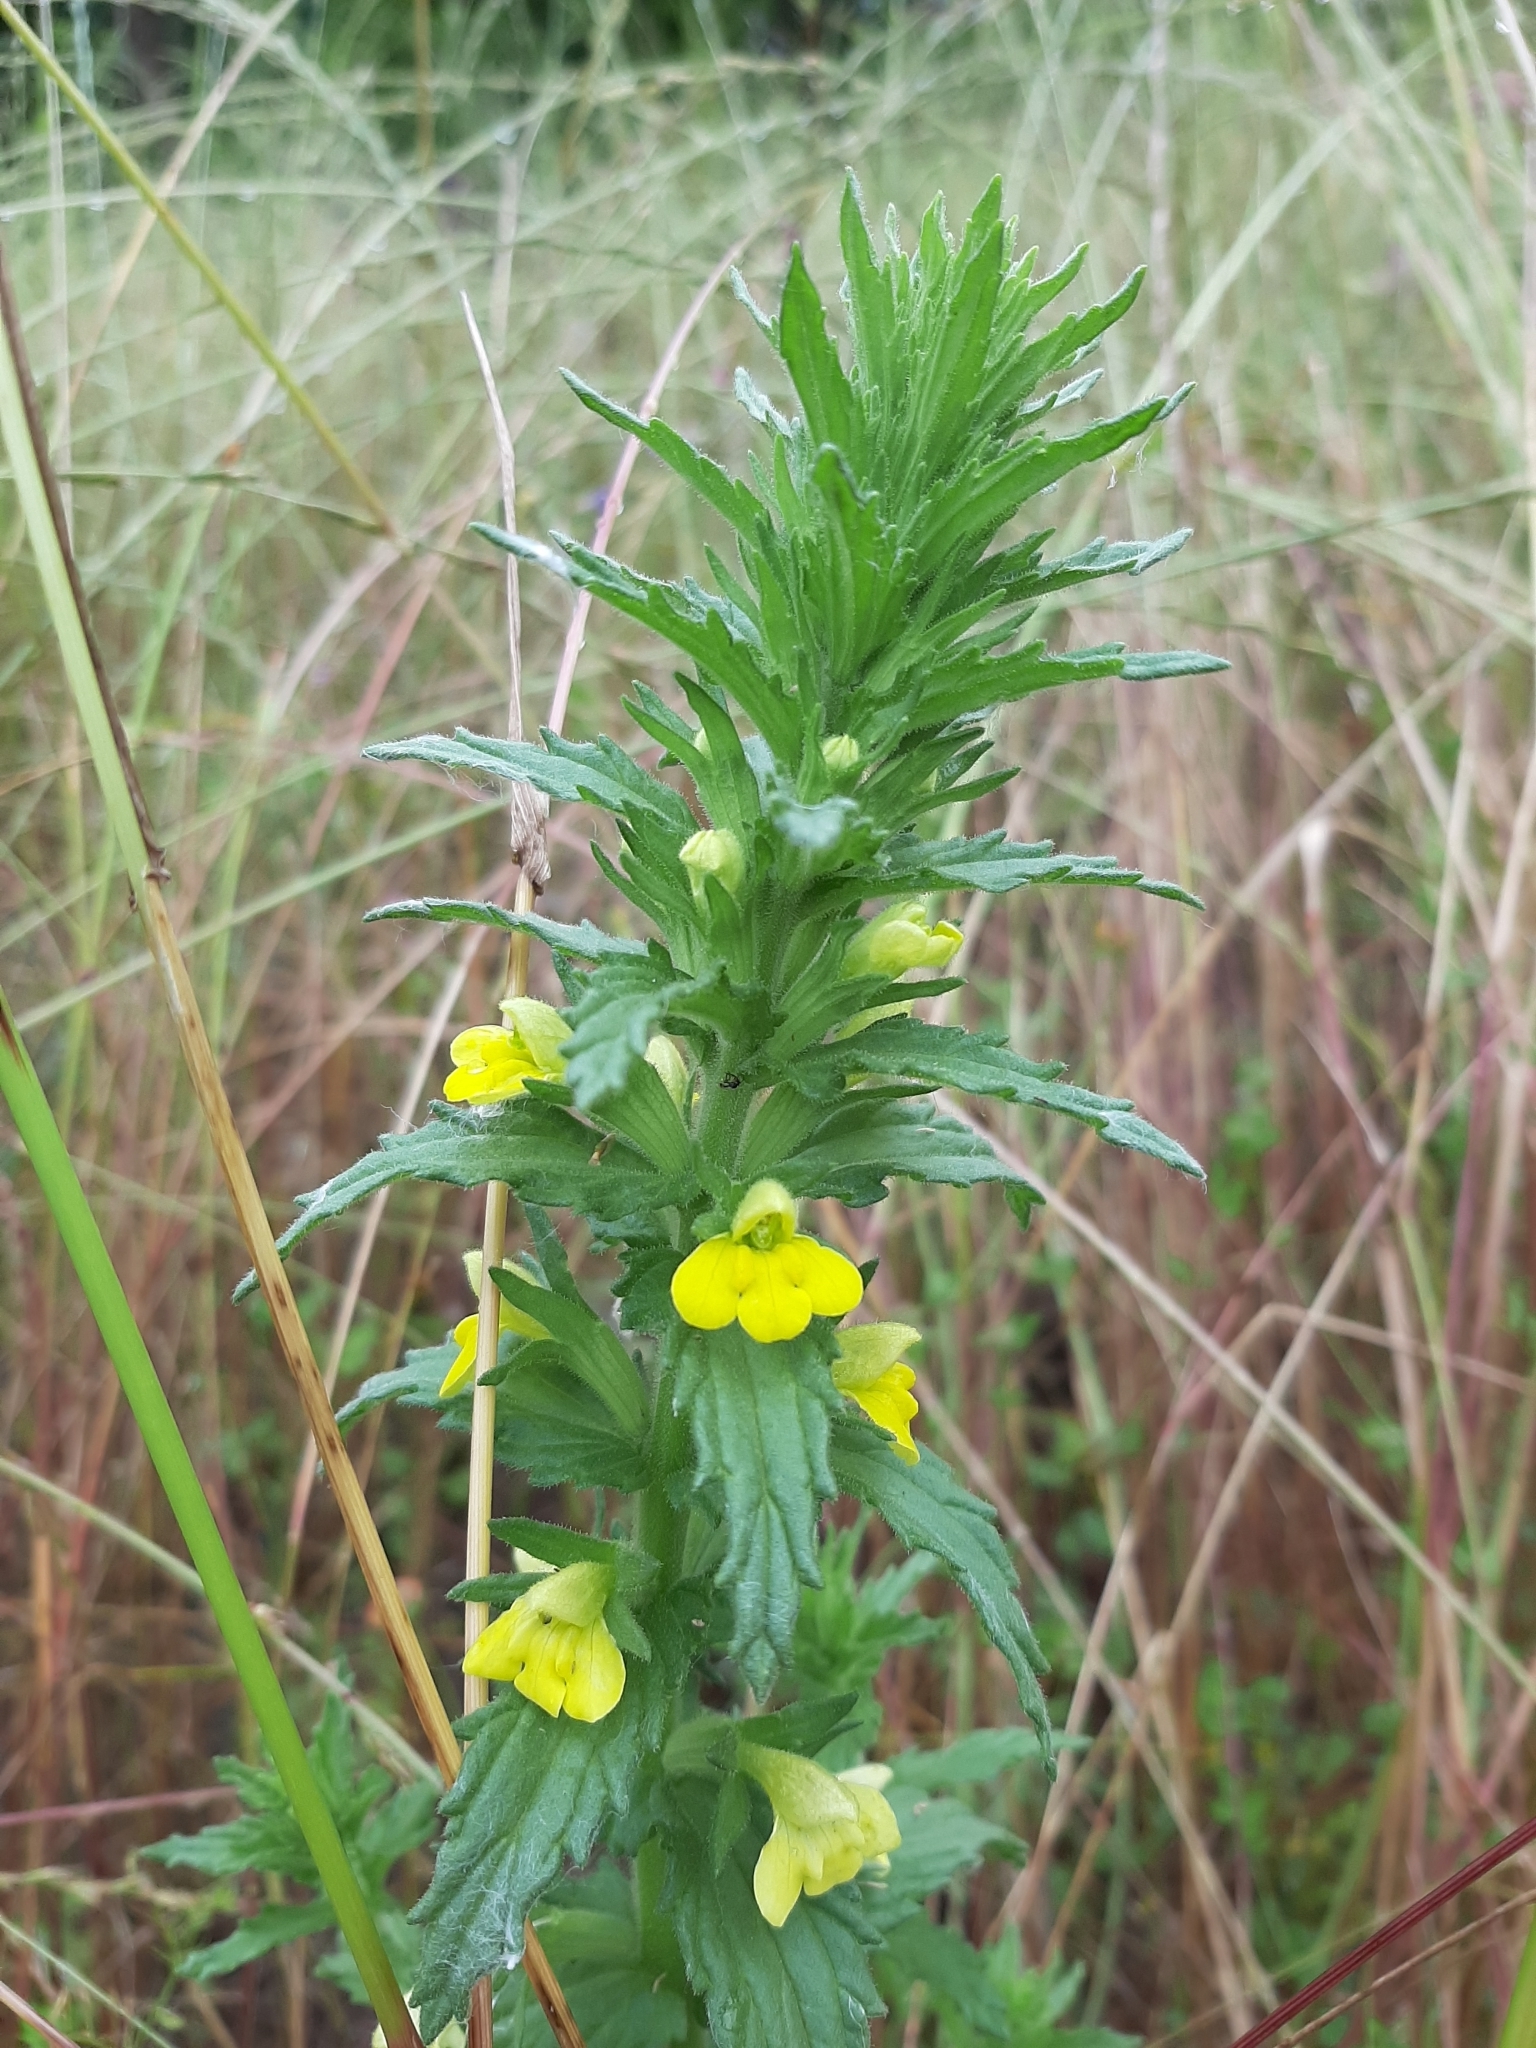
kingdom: Plantae
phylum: Tracheophyta
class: Magnoliopsida
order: Lamiales
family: Orobanchaceae
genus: Bellardia
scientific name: Bellardia viscosa
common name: Sticky parentucellia
